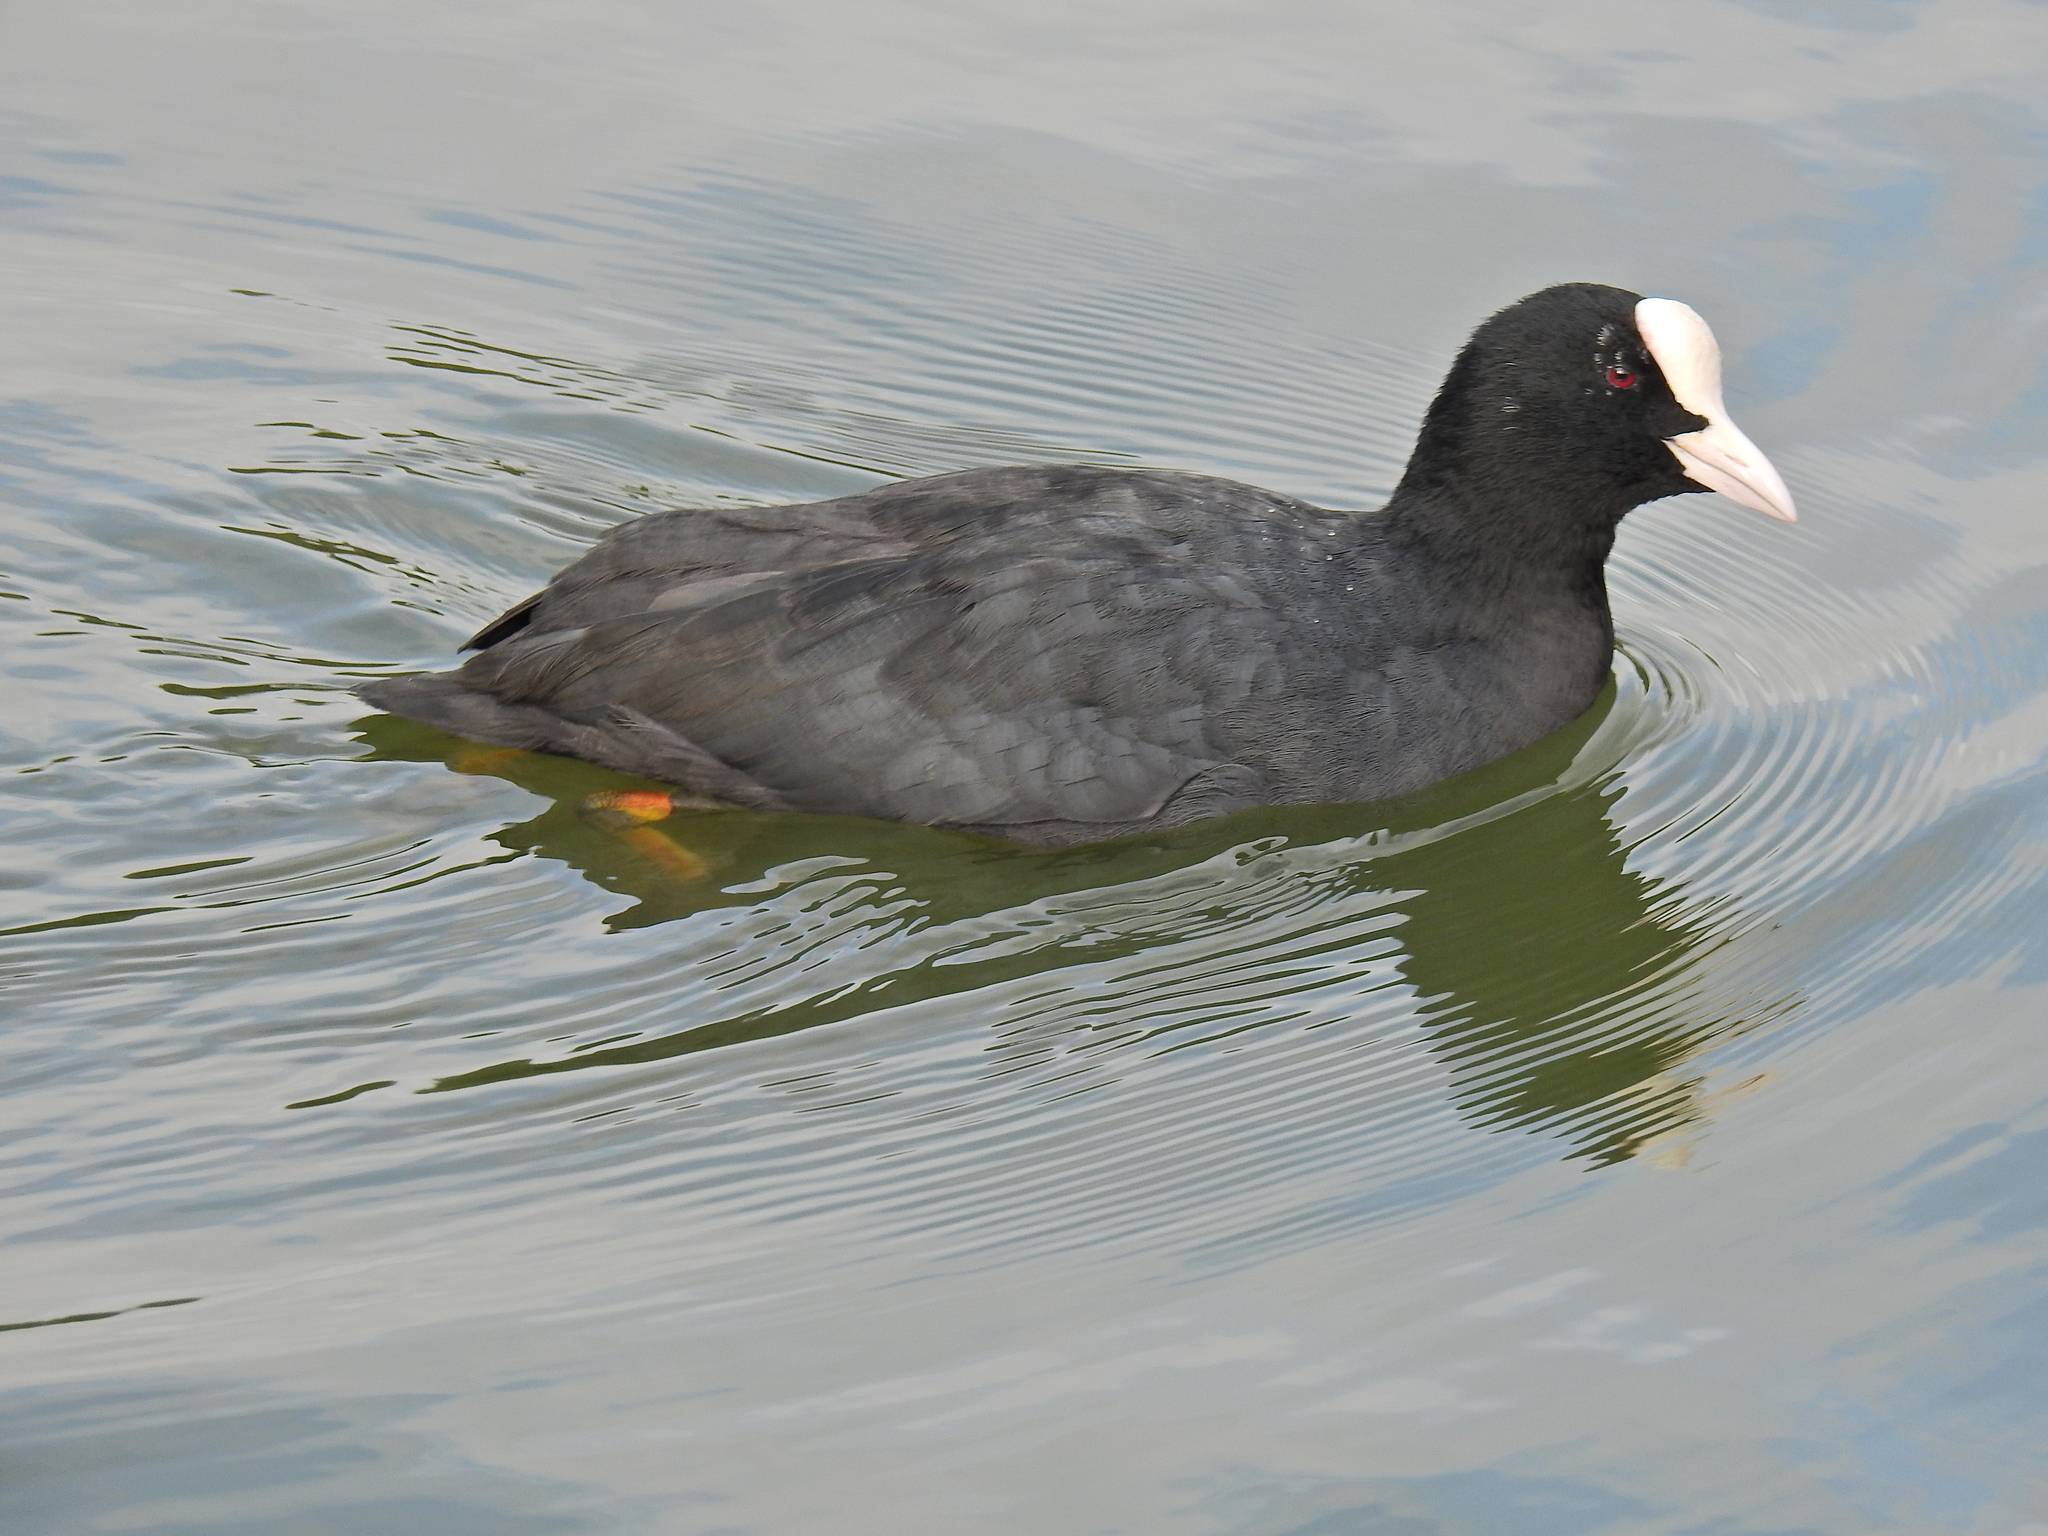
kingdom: Animalia
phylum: Chordata
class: Aves
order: Gruiformes
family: Rallidae
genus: Fulica
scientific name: Fulica atra
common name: Eurasian coot
